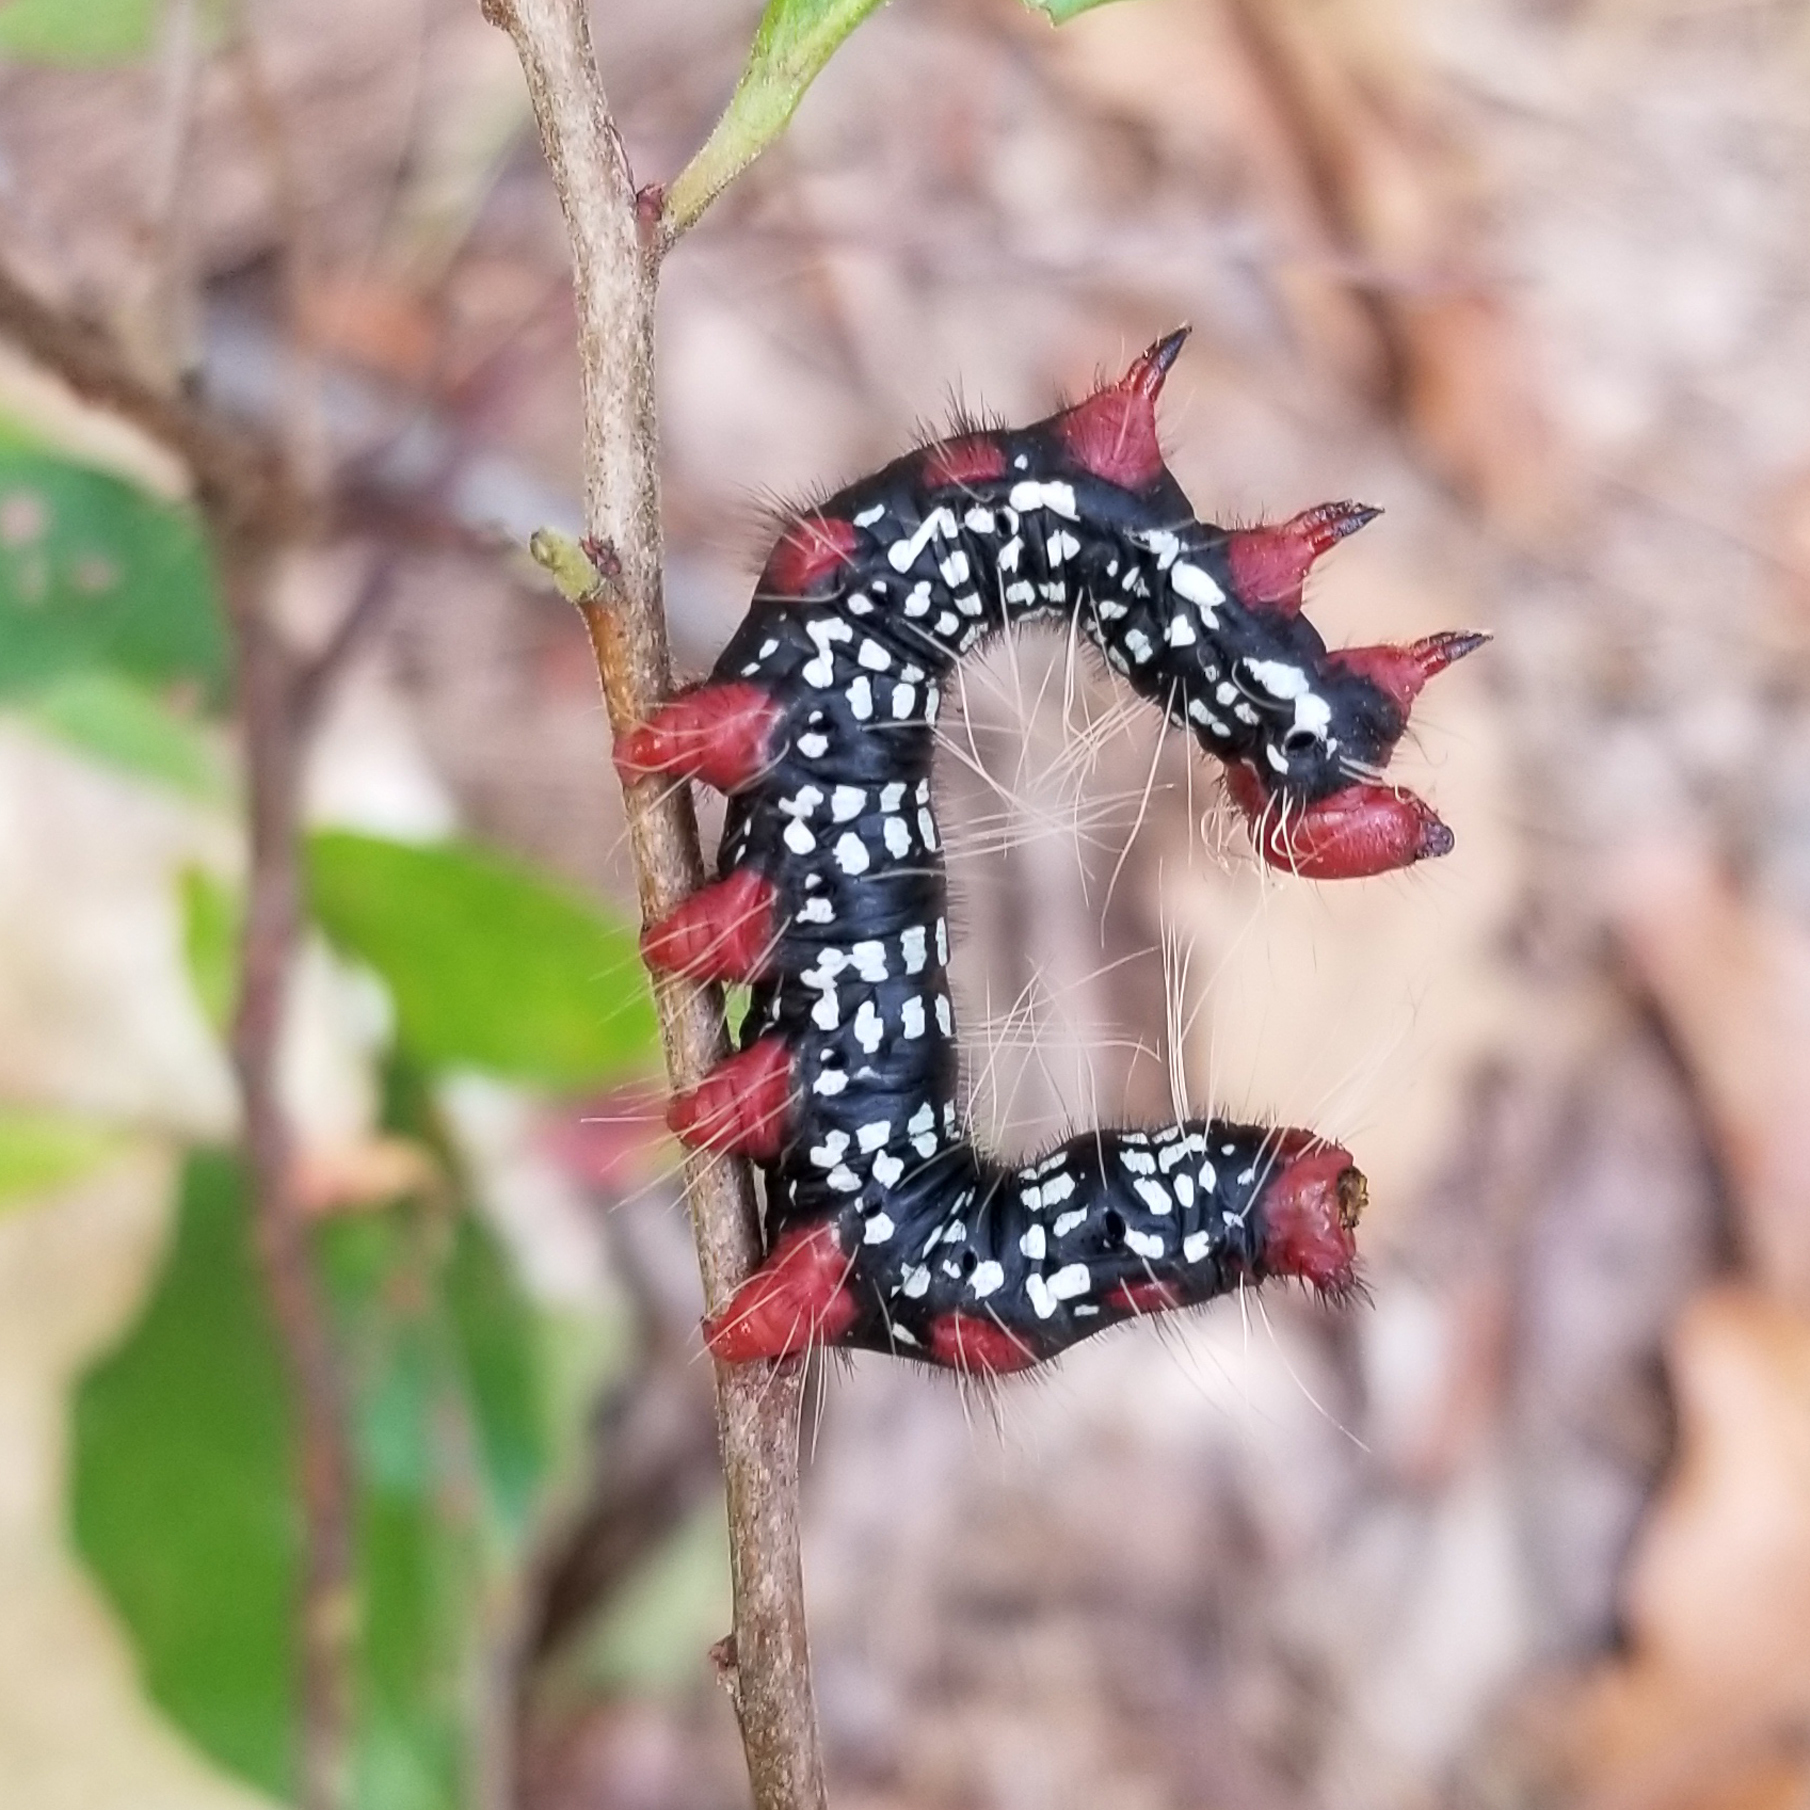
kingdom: Animalia
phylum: Arthropoda
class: Insecta
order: Lepidoptera
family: Notodontidae
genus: Datana
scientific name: Datana major
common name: Azalea caterpillar
